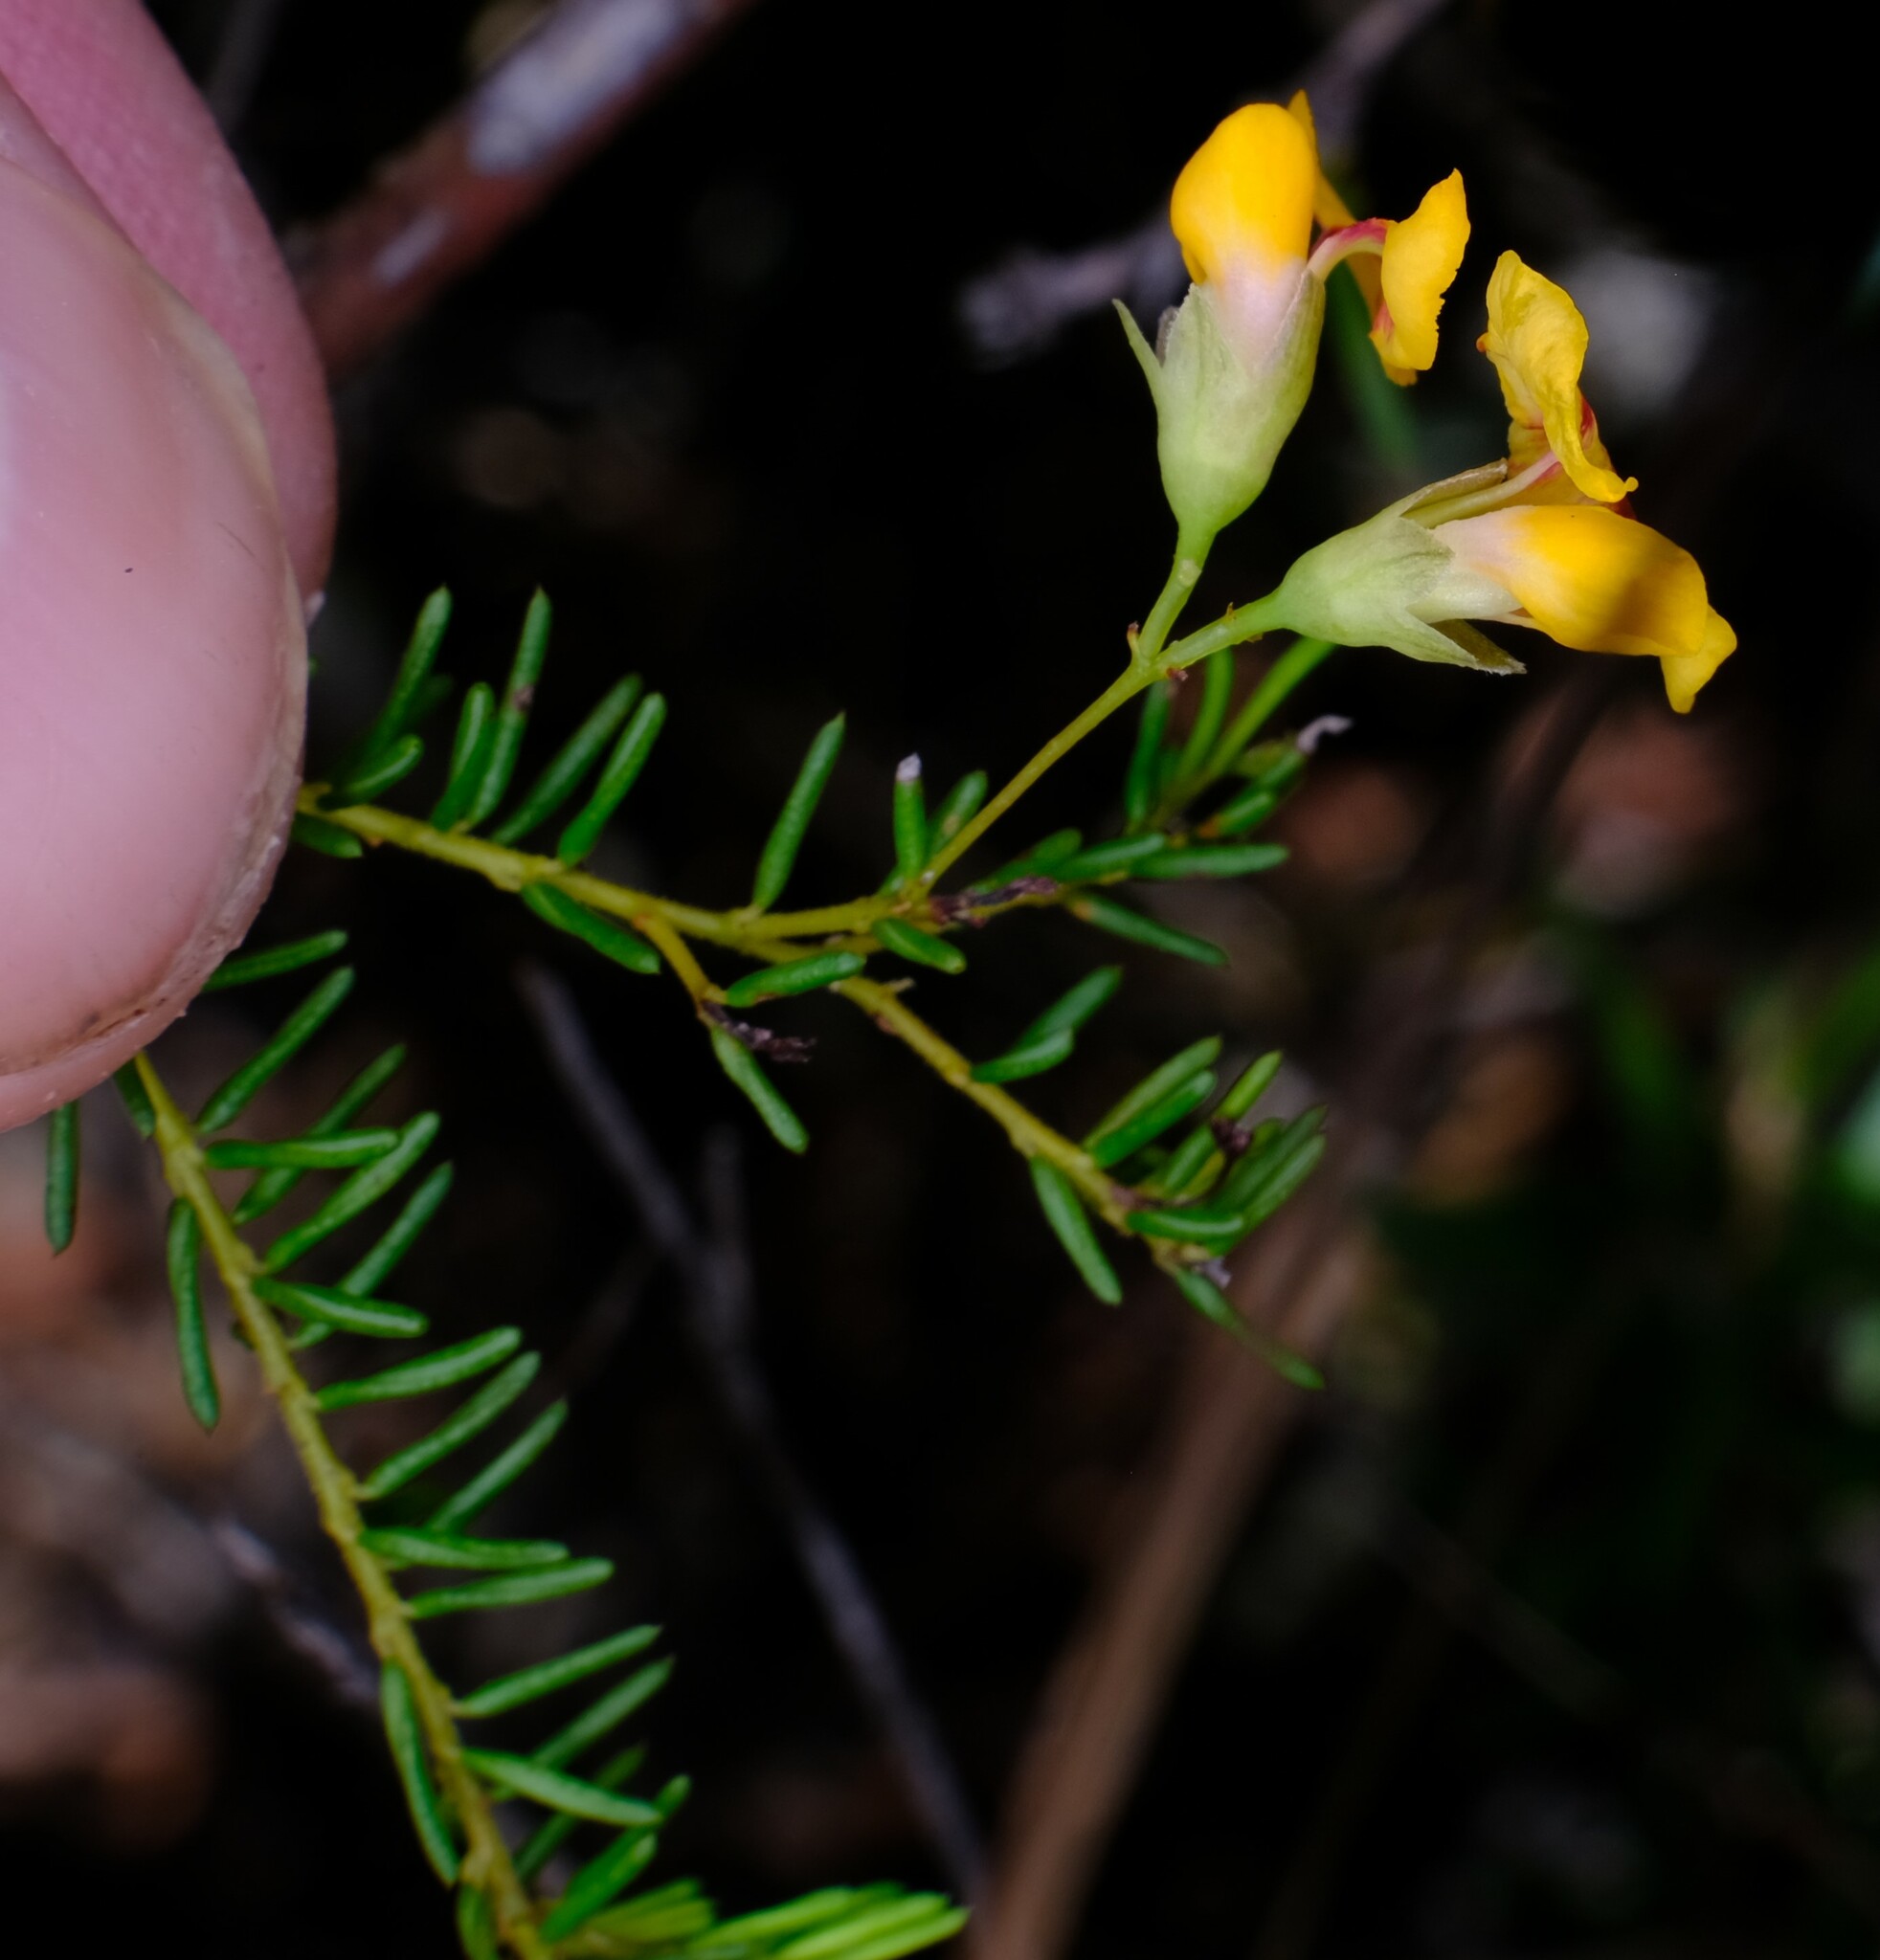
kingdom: Plantae
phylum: Tracheophyta
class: Magnoliopsida
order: Fabales
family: Fabaceae
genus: Dillwynia
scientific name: Dillwynia retorta
